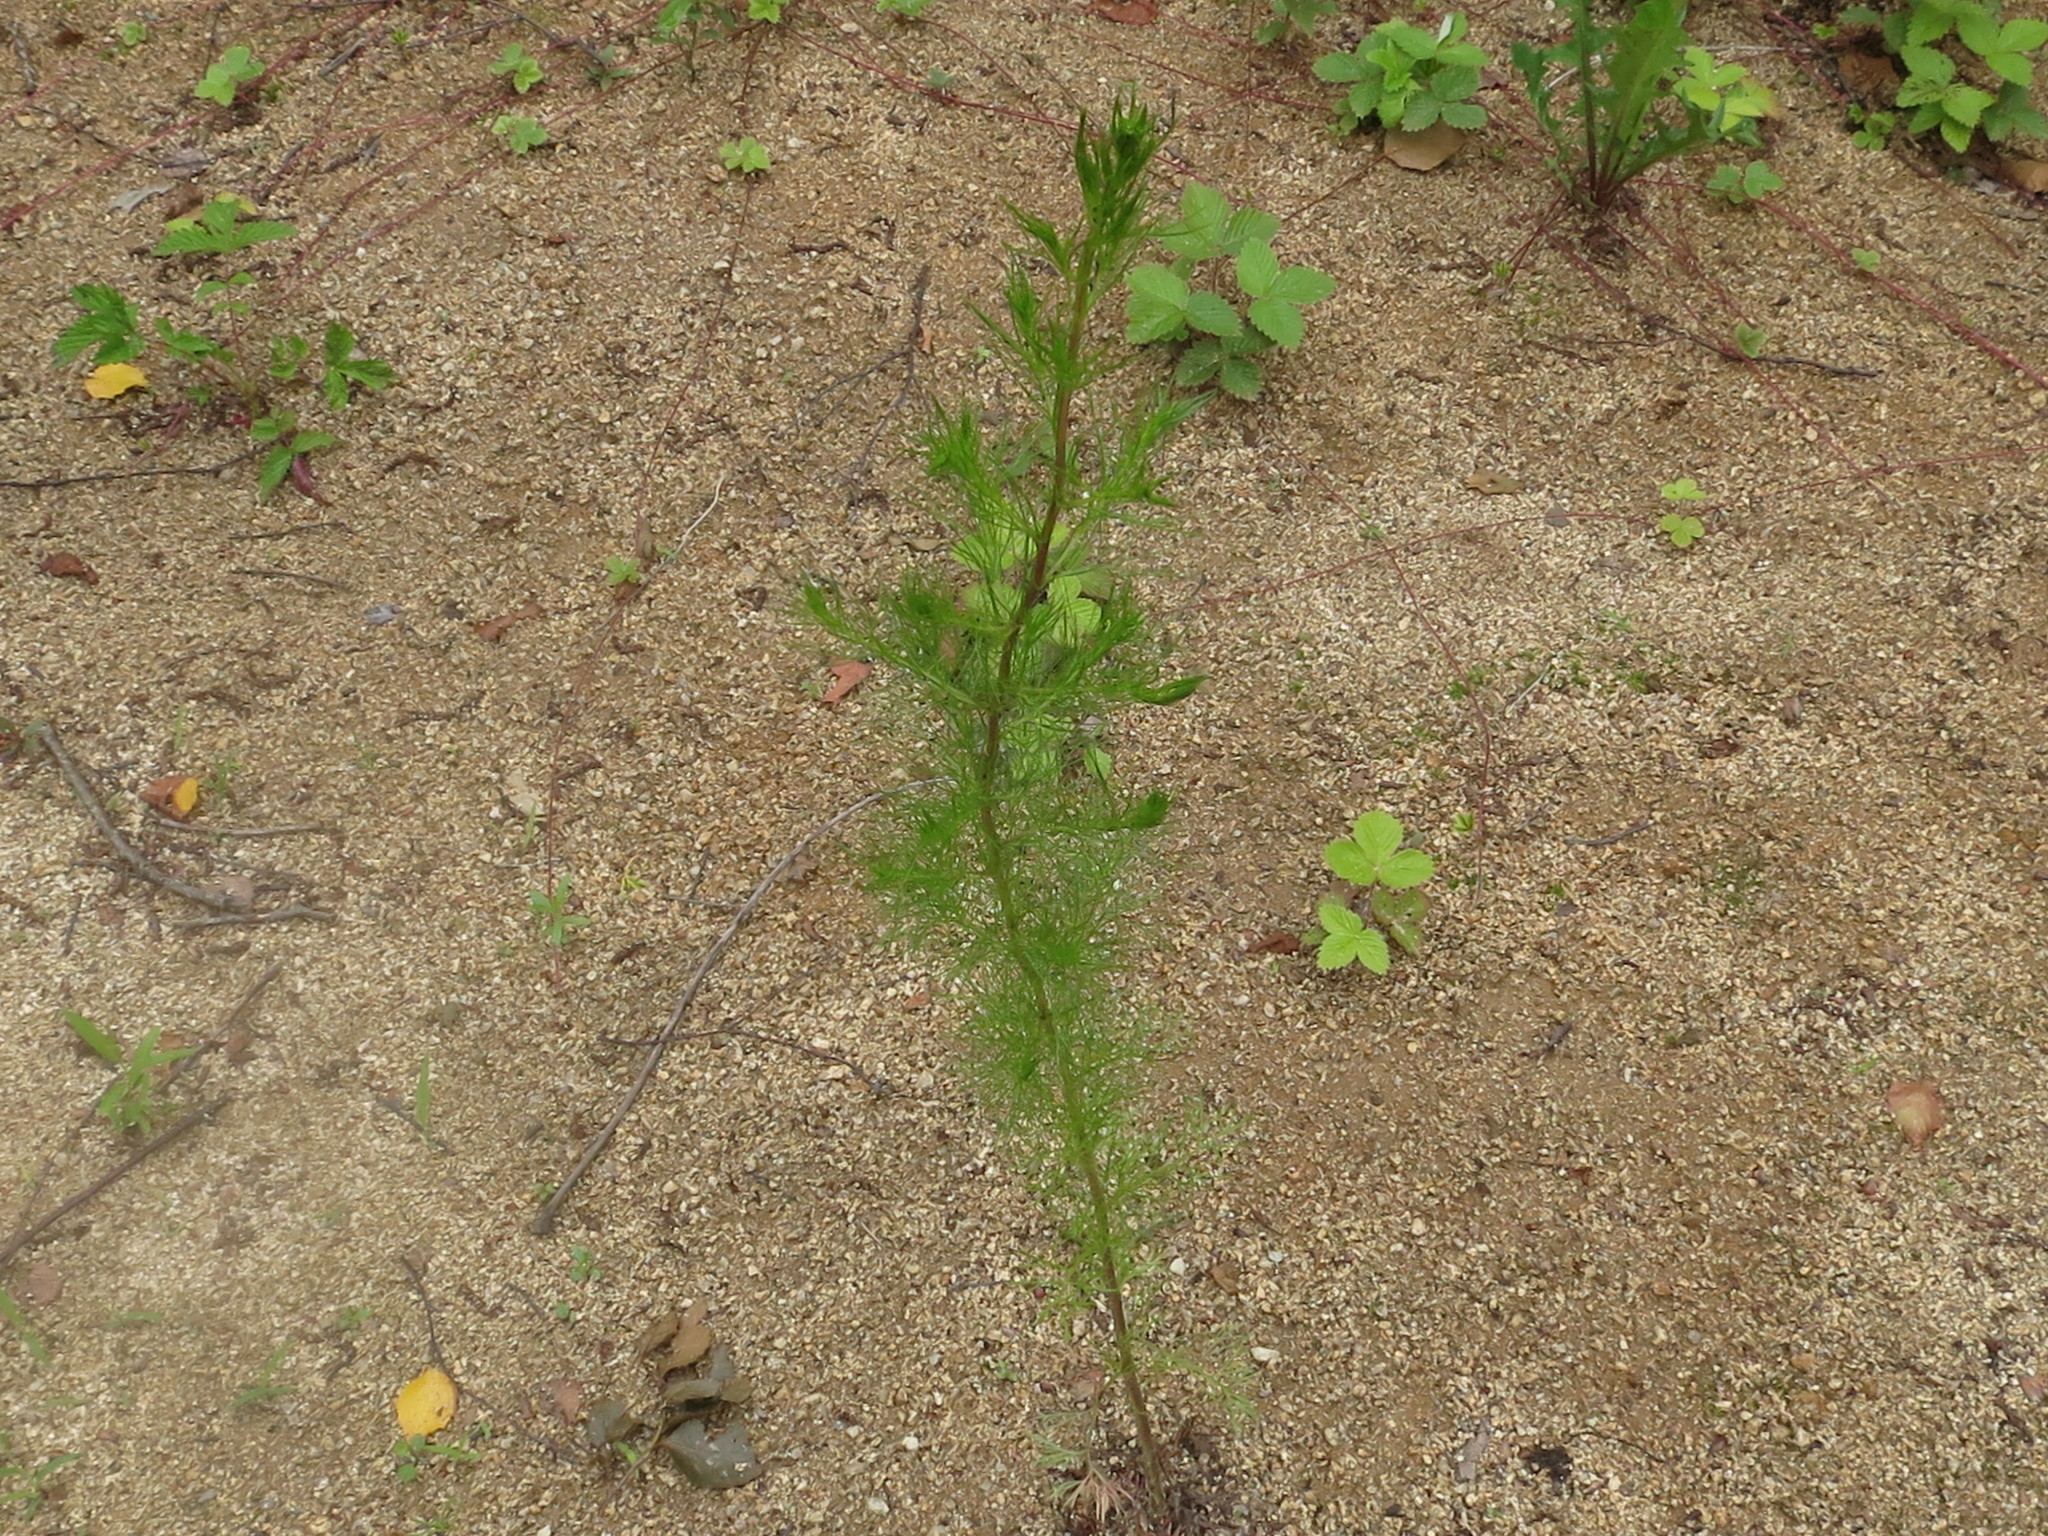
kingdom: Plantae
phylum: Tracheophyta
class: Magnoliopsida
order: Asterales
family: Asteraceae
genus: Tripleurospermum
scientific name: Tripleurospermum inodorum
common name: Scentless mayweed
